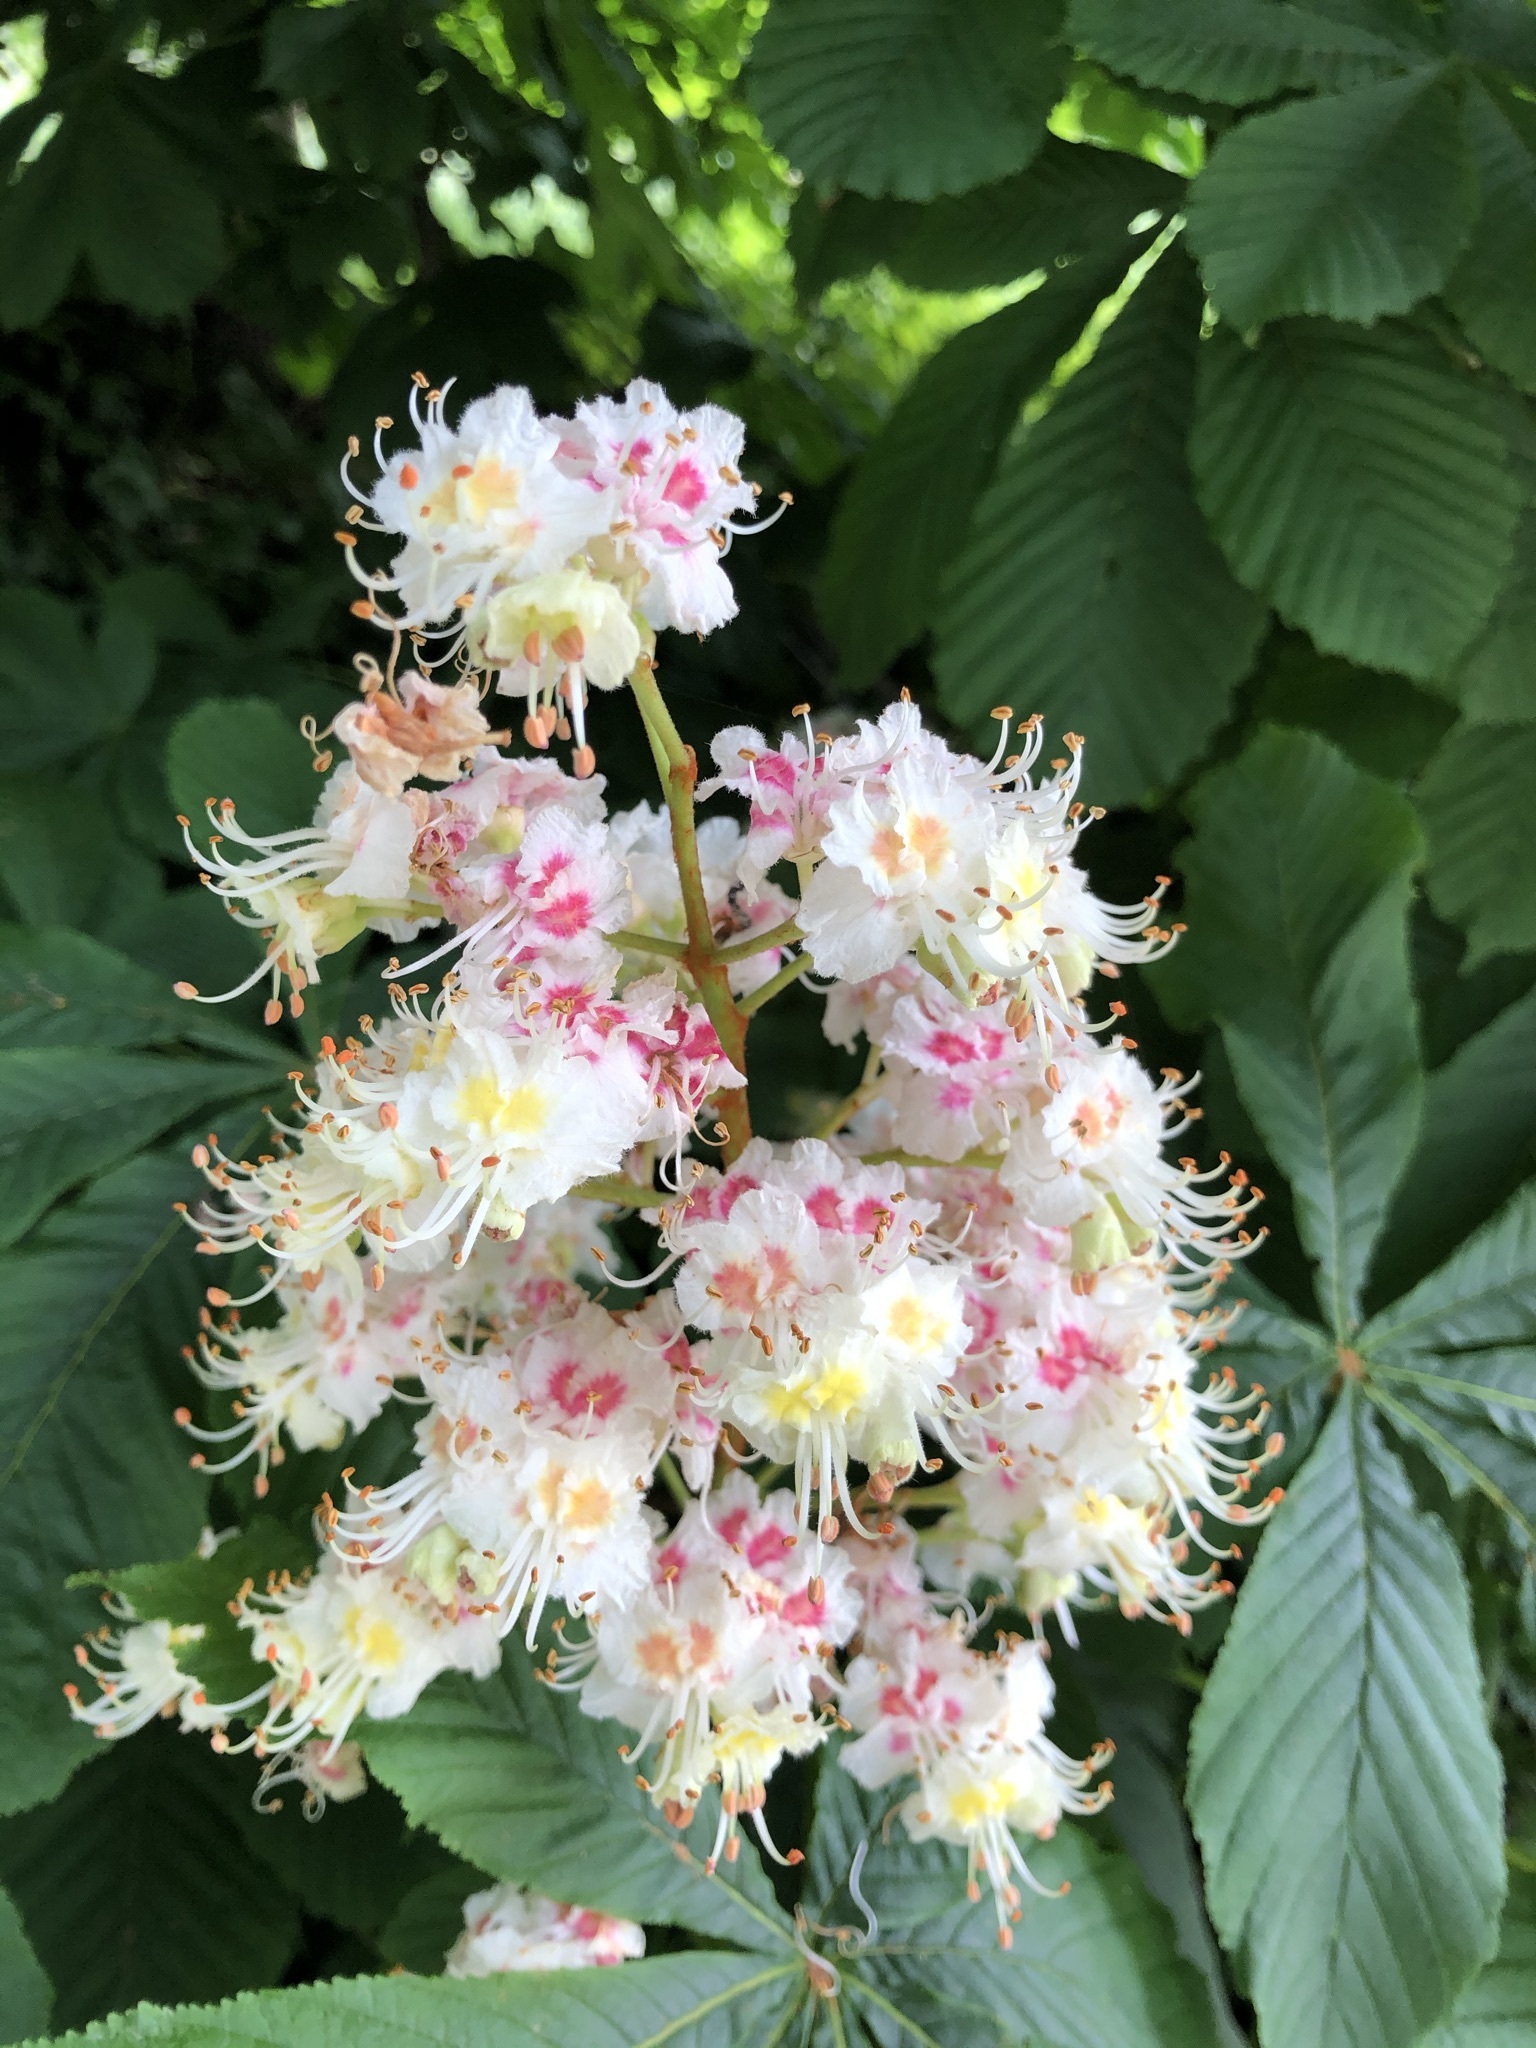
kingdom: Plantae
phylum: Tracheophyta
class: Magnoliopsida
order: Sapindales
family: Sapindaceae
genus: Aesculus
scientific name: Aesculus hippocastanum
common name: Horse-chestnut
